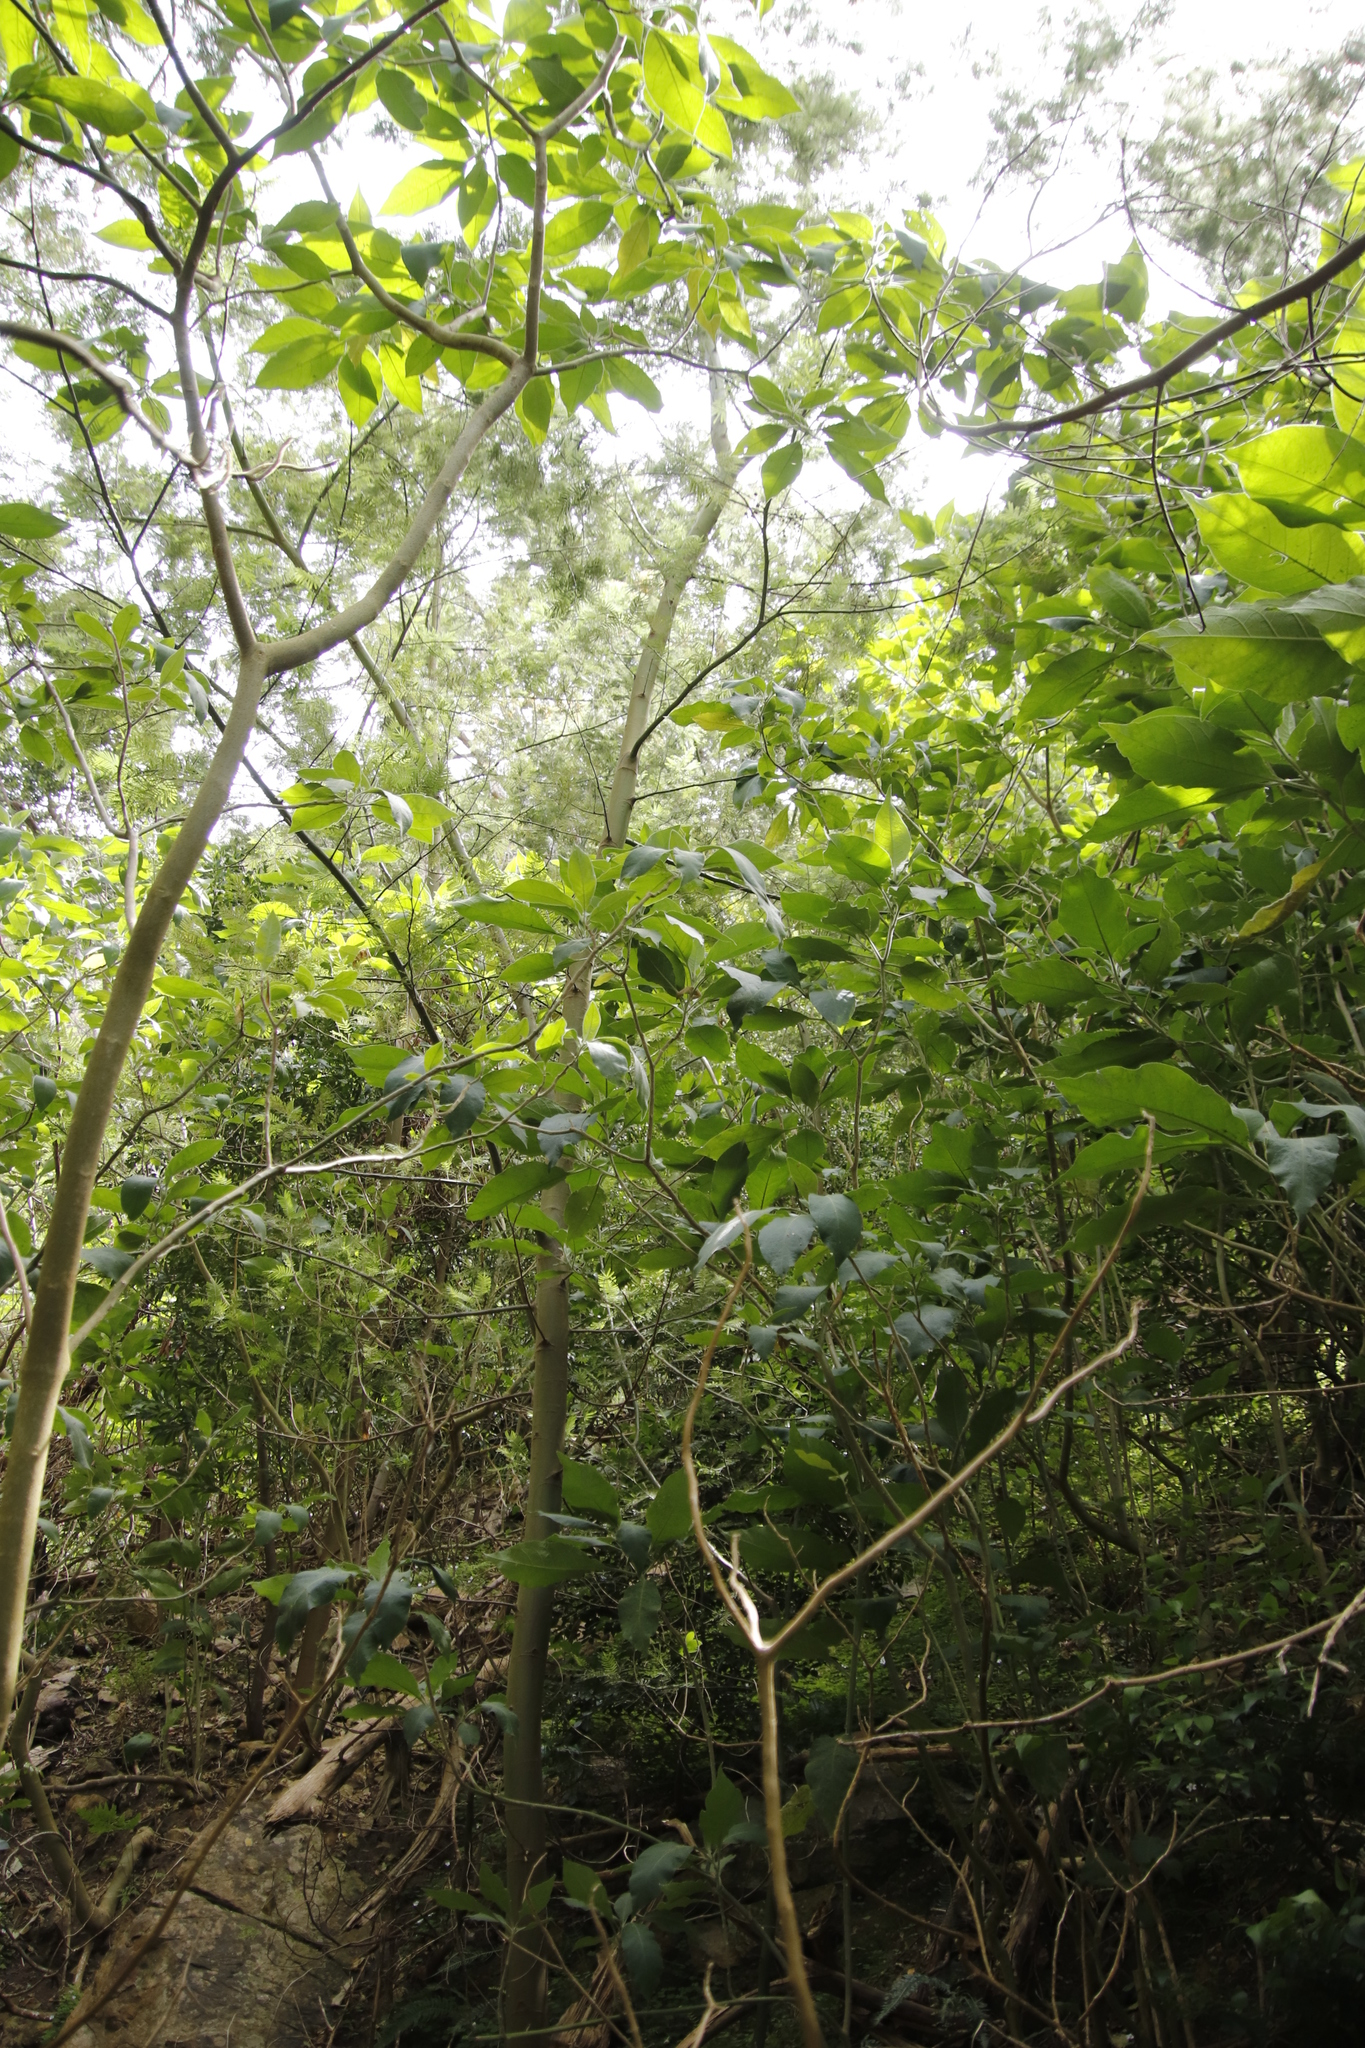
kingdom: Plantae
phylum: Tracheophyta
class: Magnoliopsida
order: Solanales
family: Solanaceae
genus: Solanum
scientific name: Solanum mauritianum
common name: Earleaf nightshade
